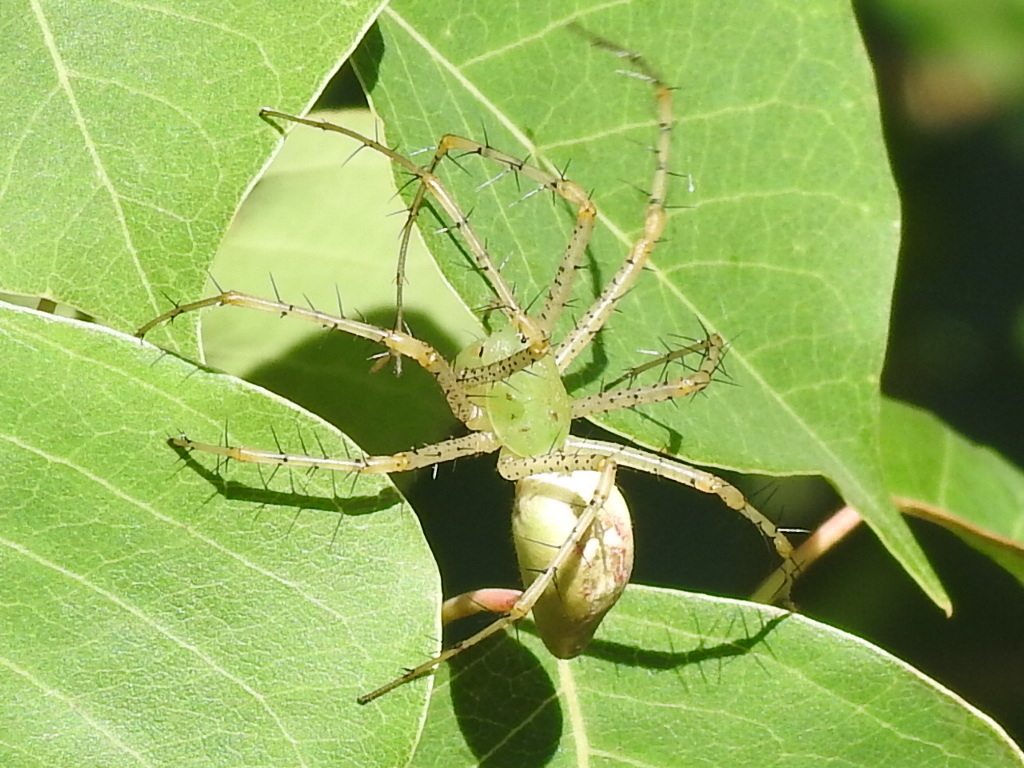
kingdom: Animalia
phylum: Arthropoda
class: Arachnida
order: Araneae
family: Oxyopidae
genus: Peucetia
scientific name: Peucetia viridans
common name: Lynx spiders
